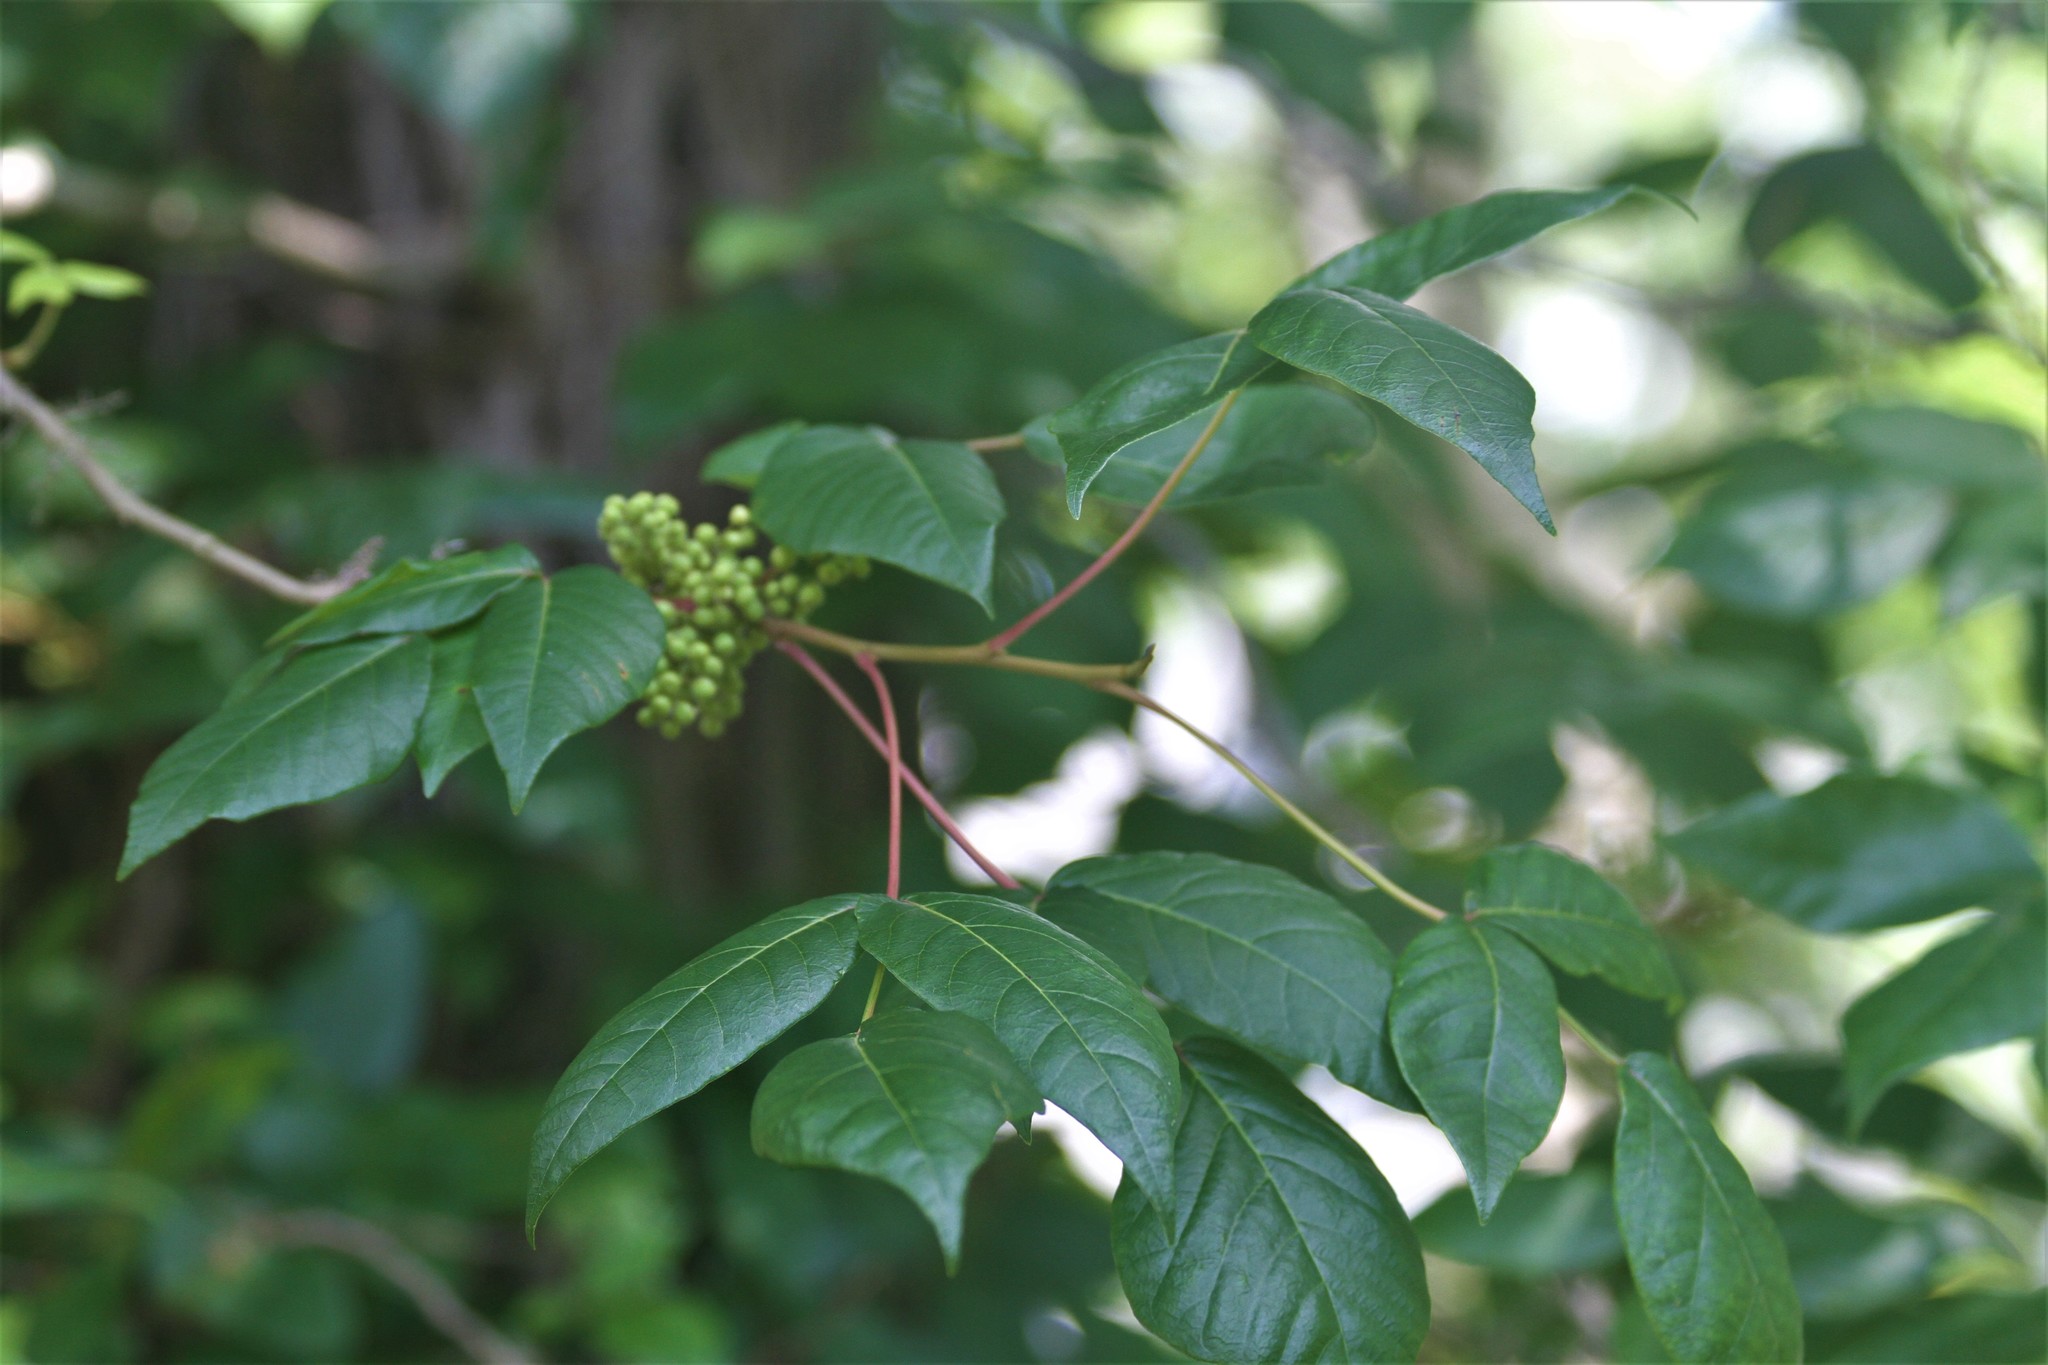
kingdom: Plantae
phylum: Tracheophyta
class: Magnoliopsida
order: Sapindales
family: Anacardiaceae
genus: Toxicodendron
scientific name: Toxicodendron radicans
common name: Poison ivy
